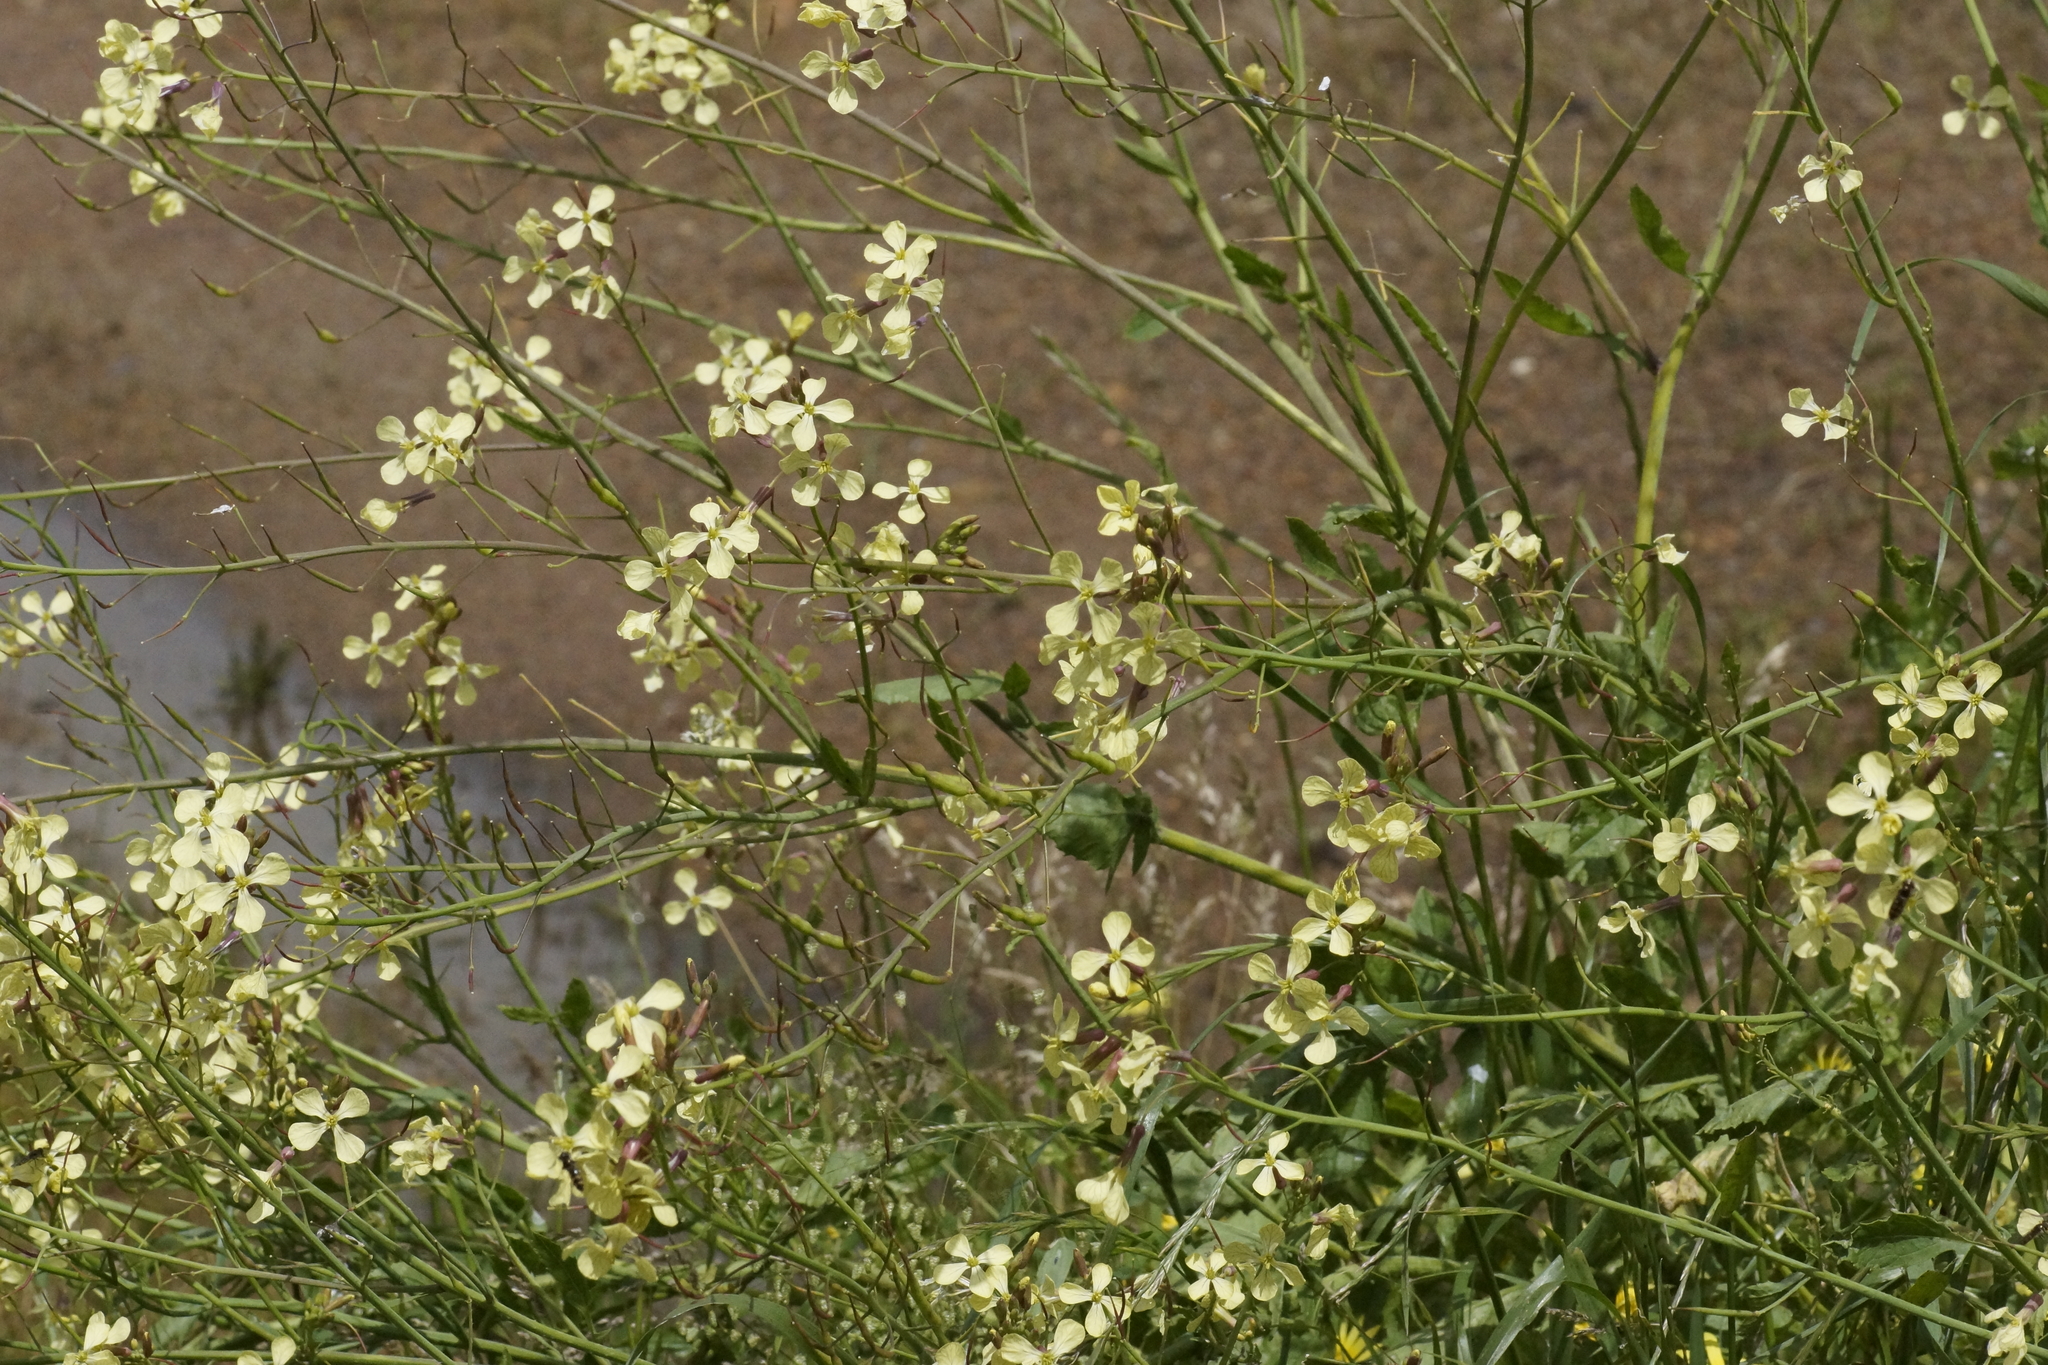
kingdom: Plantae
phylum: Tracheophyta
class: Magnoliopsida
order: Brassicales
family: Brassicaceae
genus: Raphanus
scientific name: Raphanus raphanistrum
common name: Wild radish
